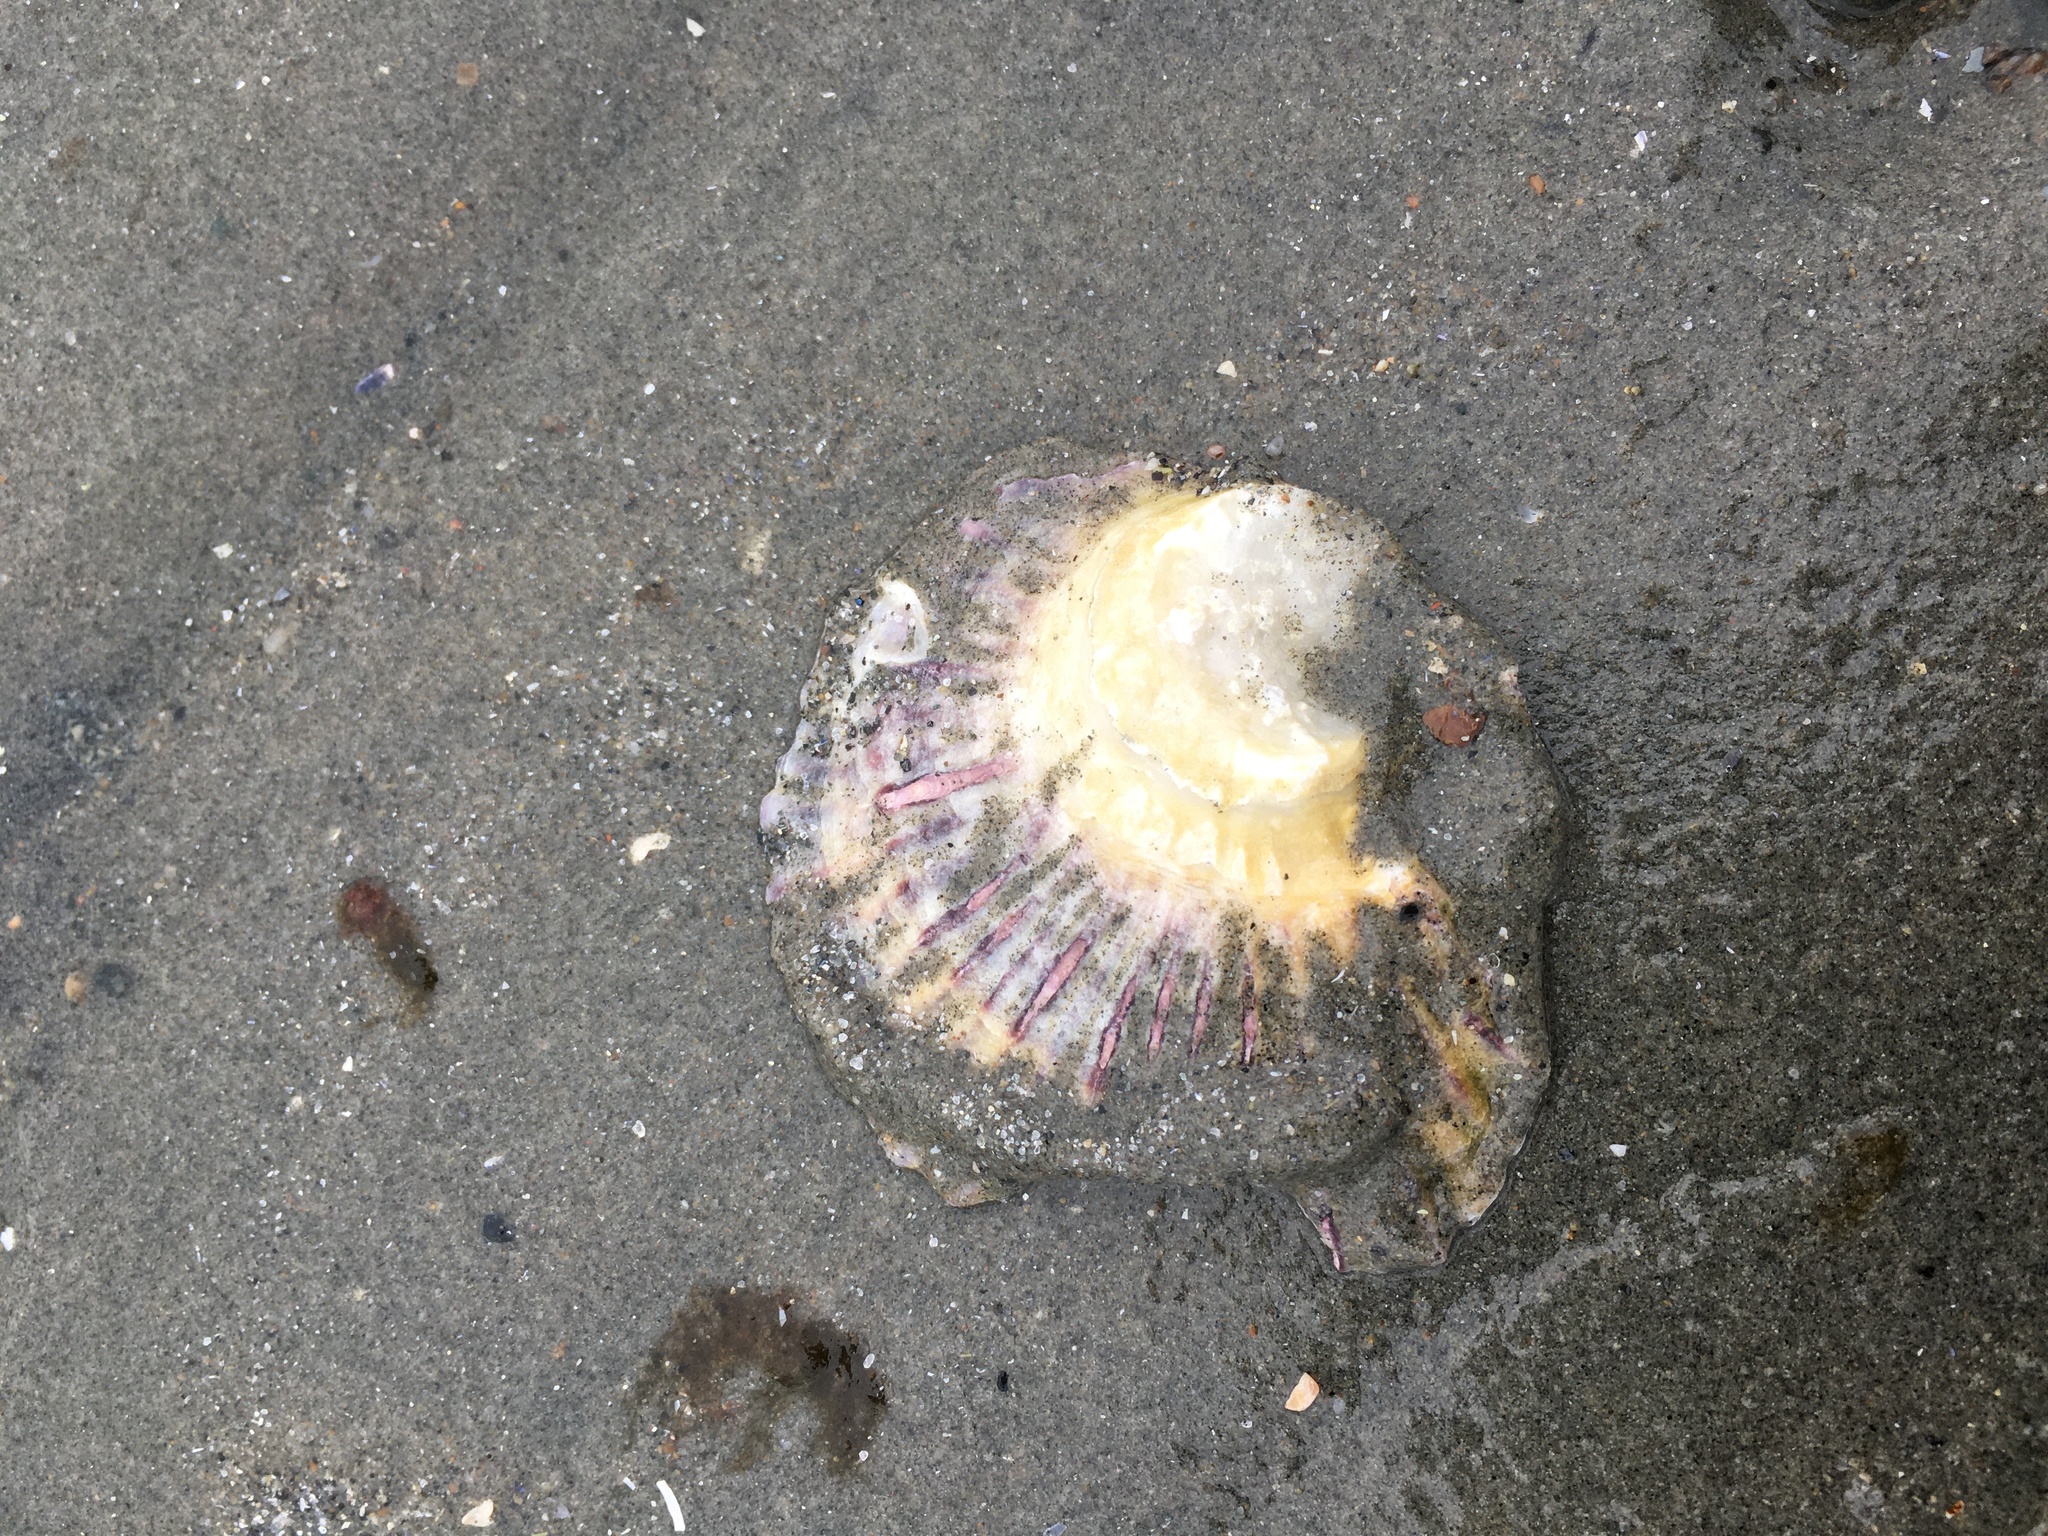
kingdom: Animalia
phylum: Mollusca
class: Bivalvia
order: Ostreida
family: Ostreidae
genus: Ostrea
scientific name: Ostrea edulis
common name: Flat oyster
